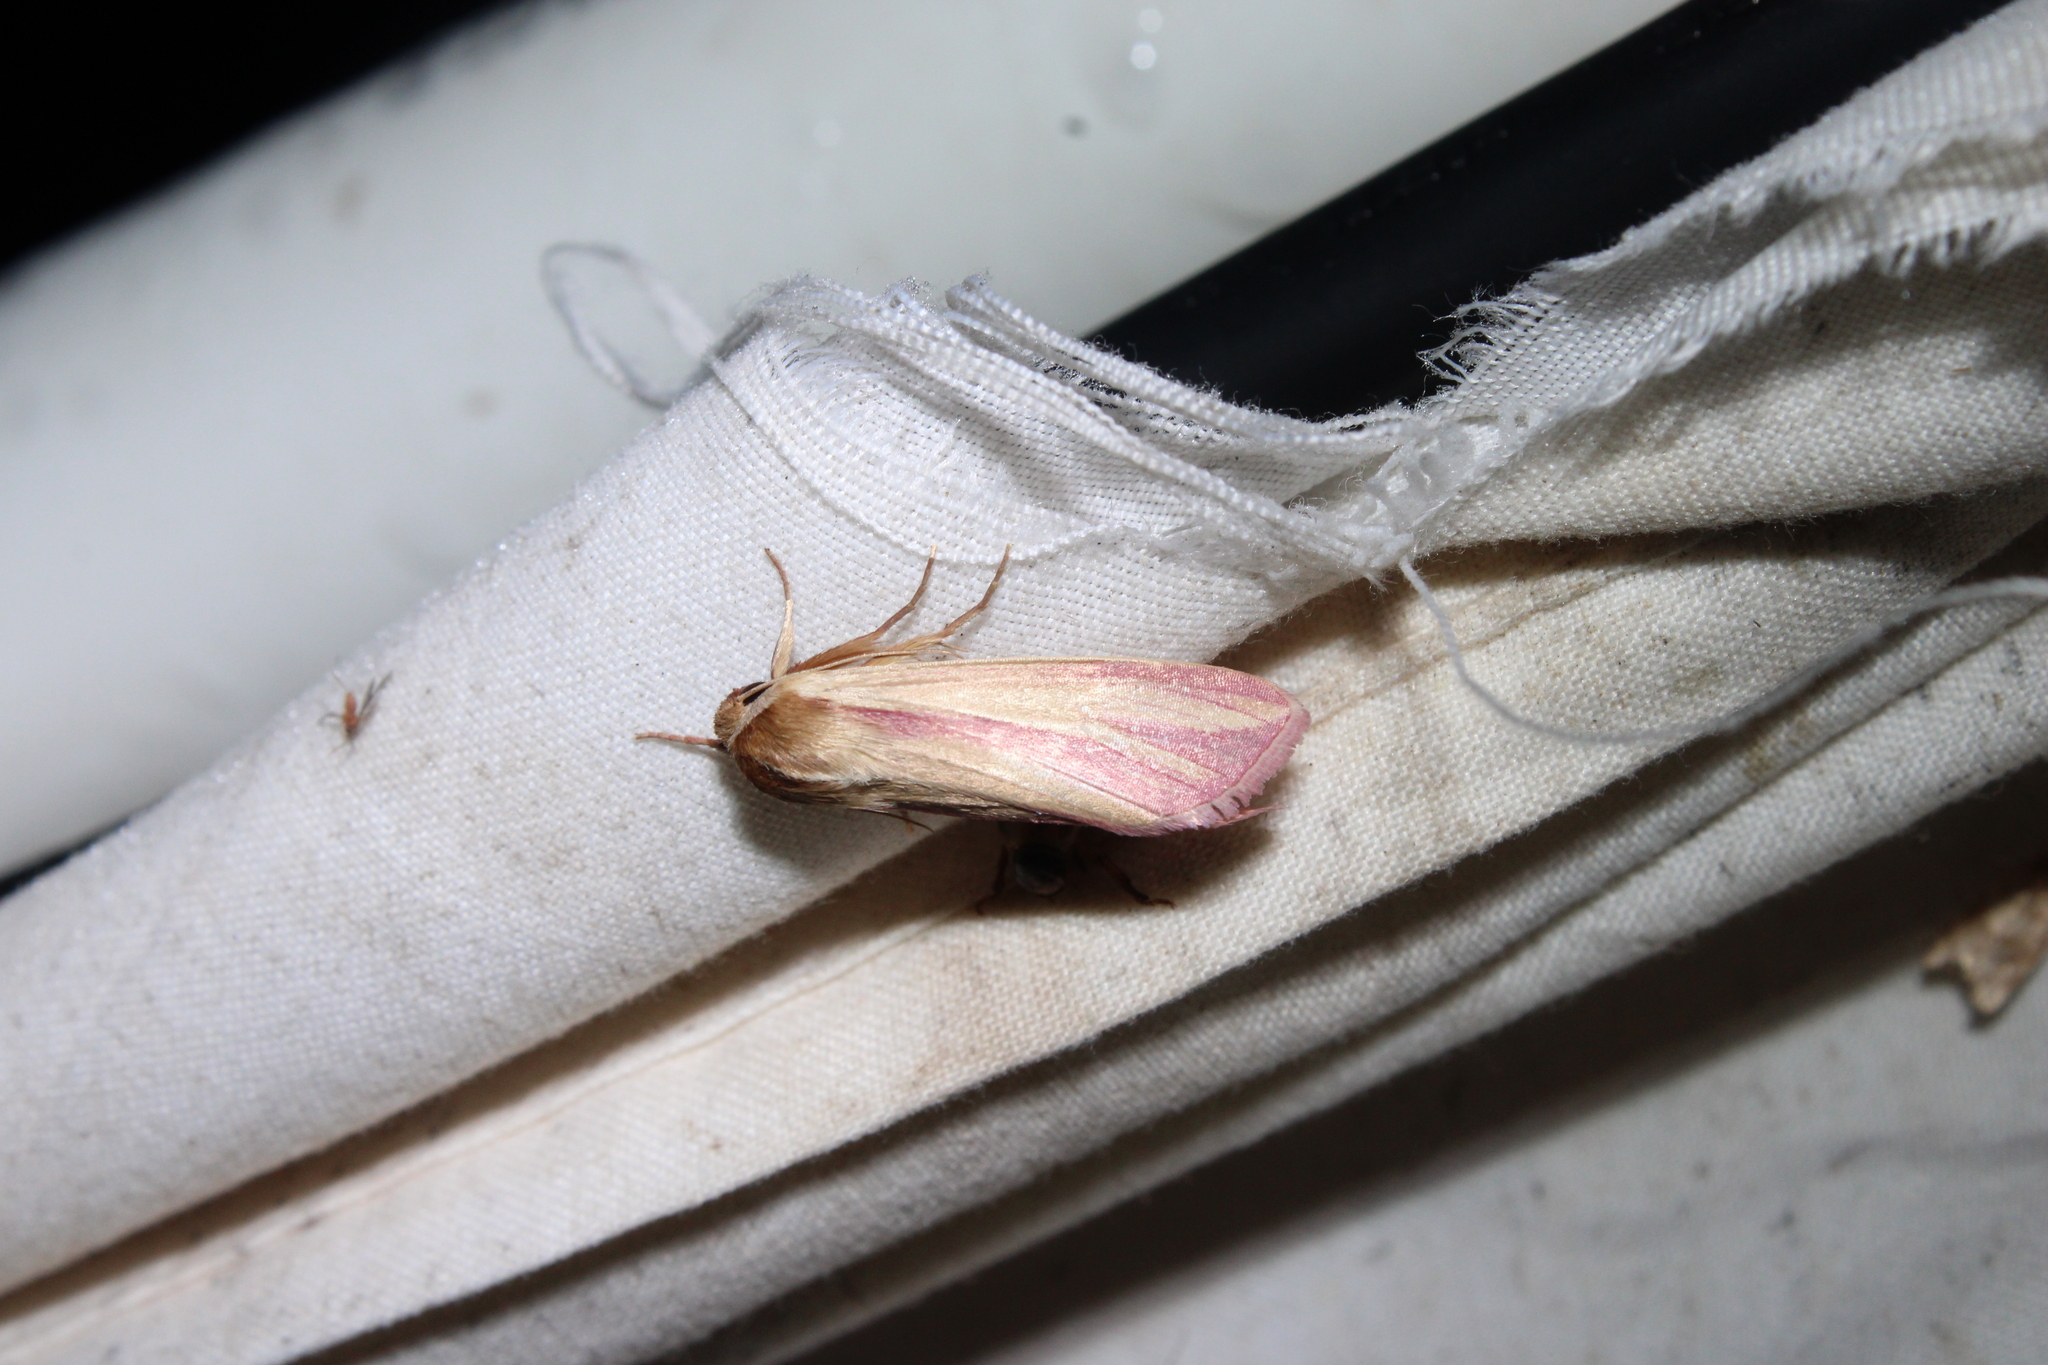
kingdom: Animalia
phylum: Arthropoda
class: Insecta
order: Lepidoptera
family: Noctuidae
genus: Dargida
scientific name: Dargida rubripennis
